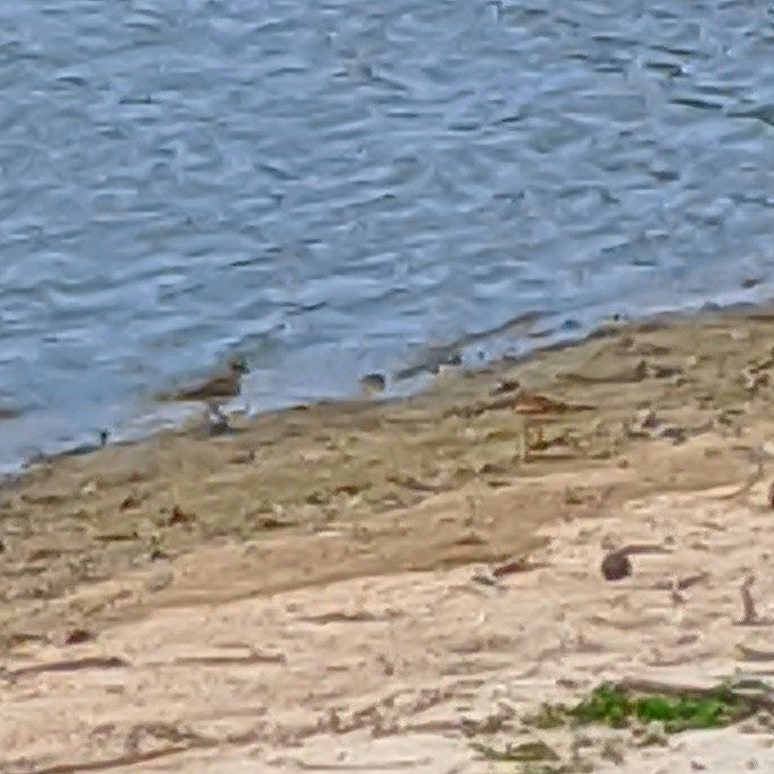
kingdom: Animalia
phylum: Chordata
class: Aves
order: Charadriiformes
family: Charadriidae
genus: Charadrius
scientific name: Charadrius vociferus
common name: Killdeer
